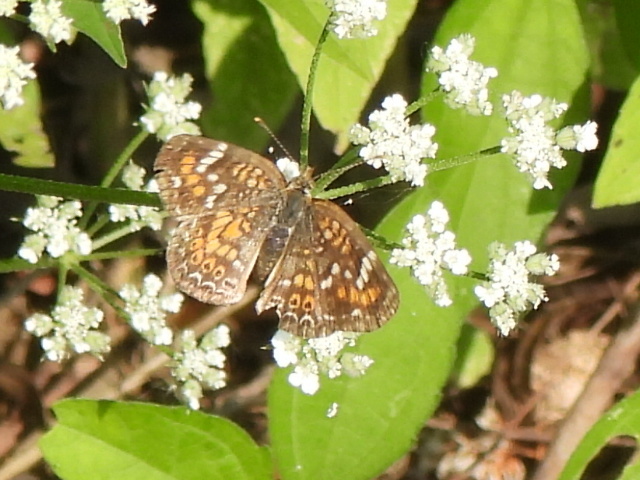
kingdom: Animalia
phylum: Arthropoda
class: Insecta
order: Lepidoptera
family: Nymphalidae
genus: Phyciodes
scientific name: Phyciodes phaon
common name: Phaon crescent
